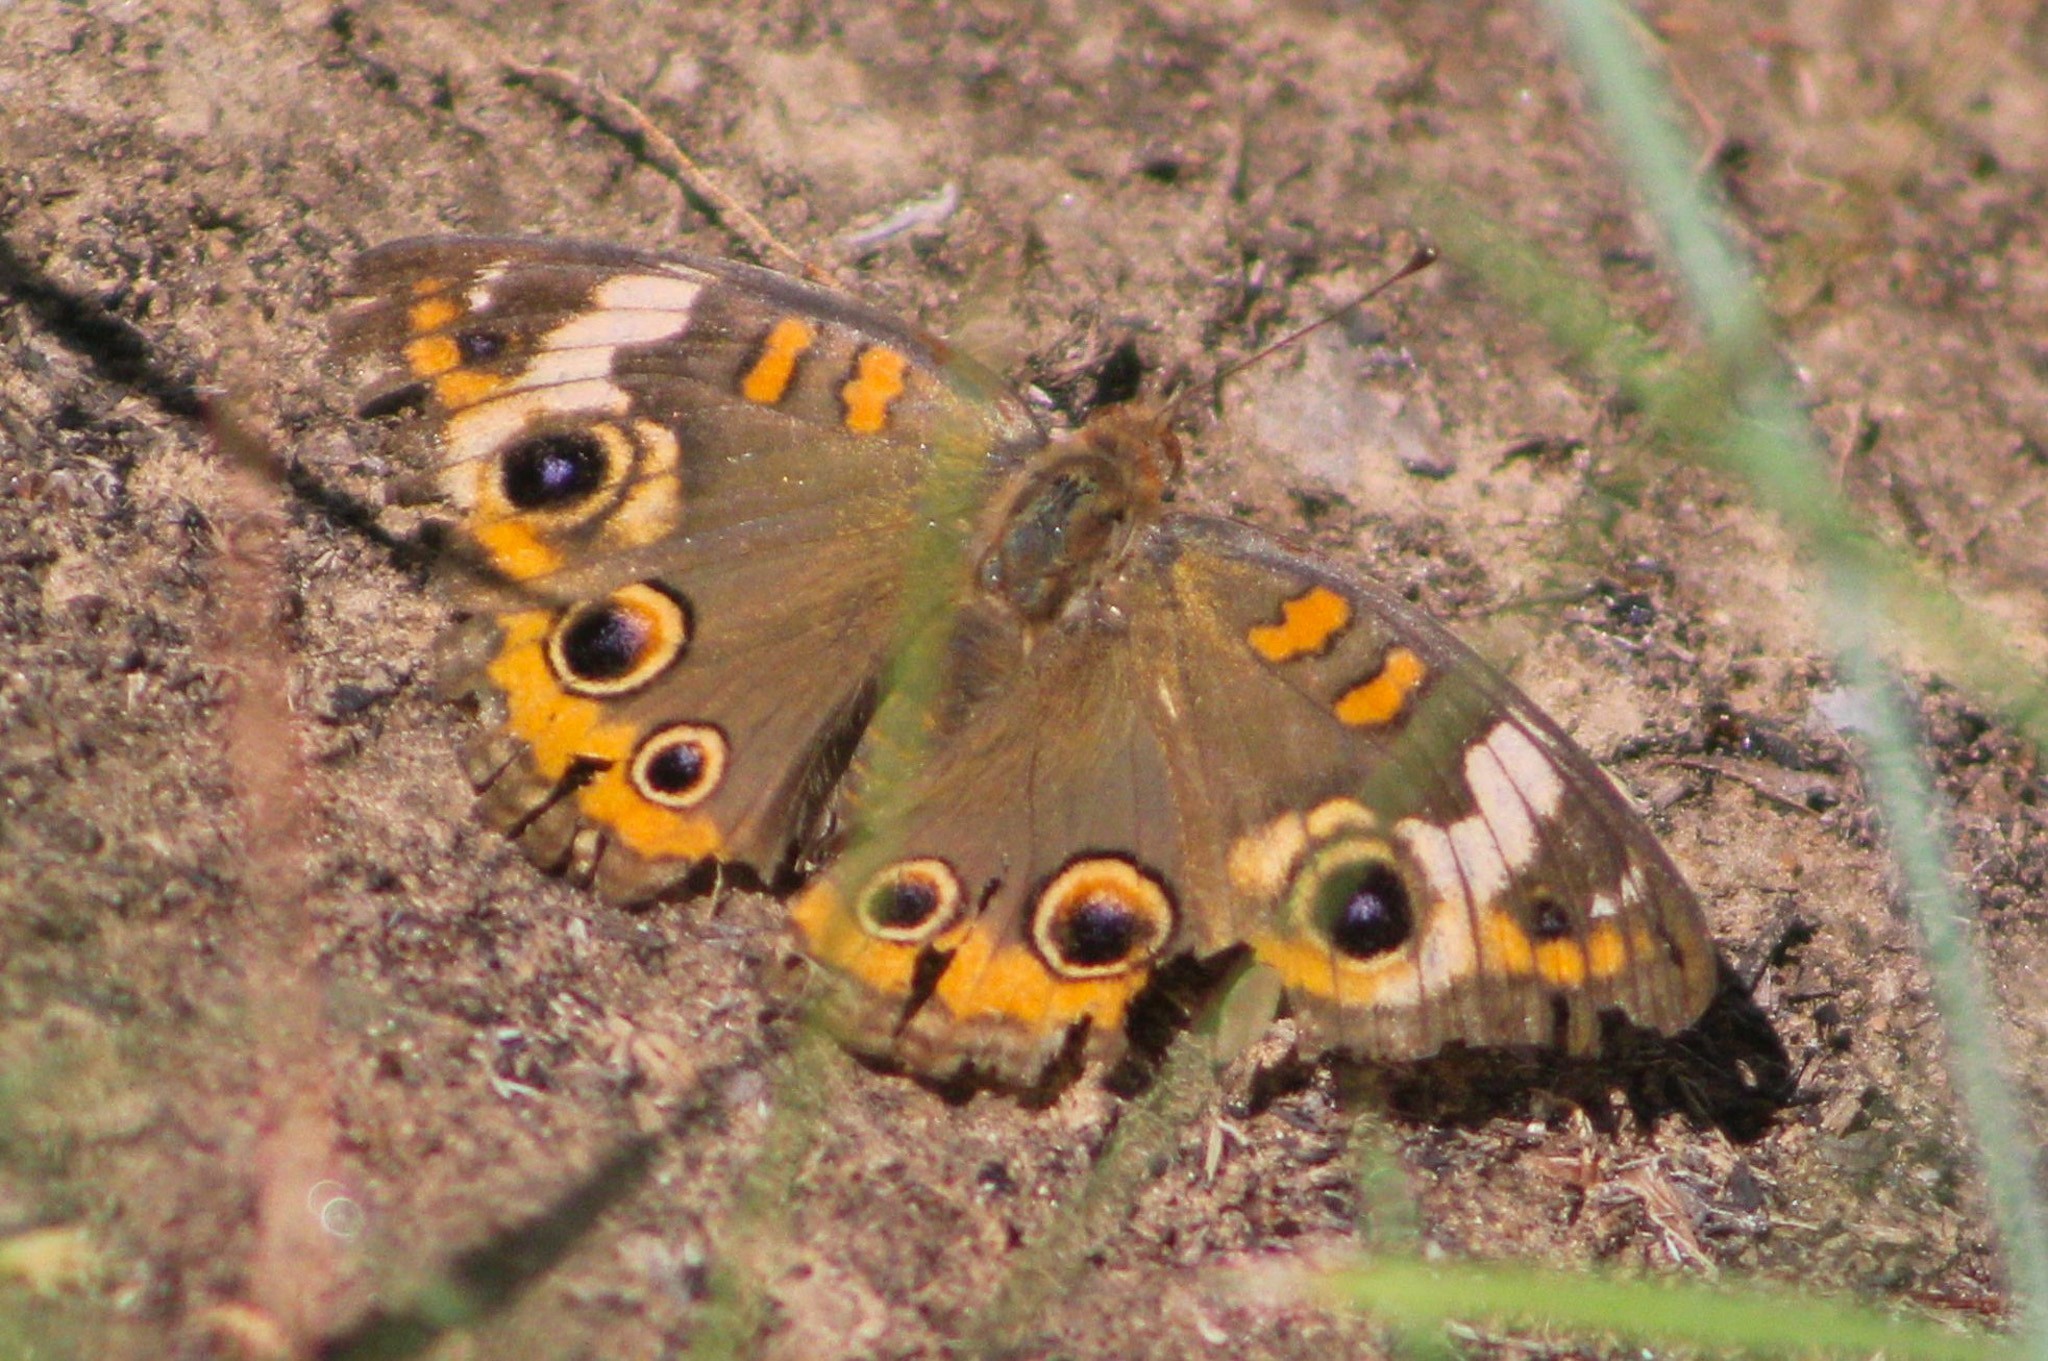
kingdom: Animalia
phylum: Arthropoda
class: Insecta
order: Lepidoptera
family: Nymphalidae
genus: Junonia
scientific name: Junonia coenia
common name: Common buckeye
